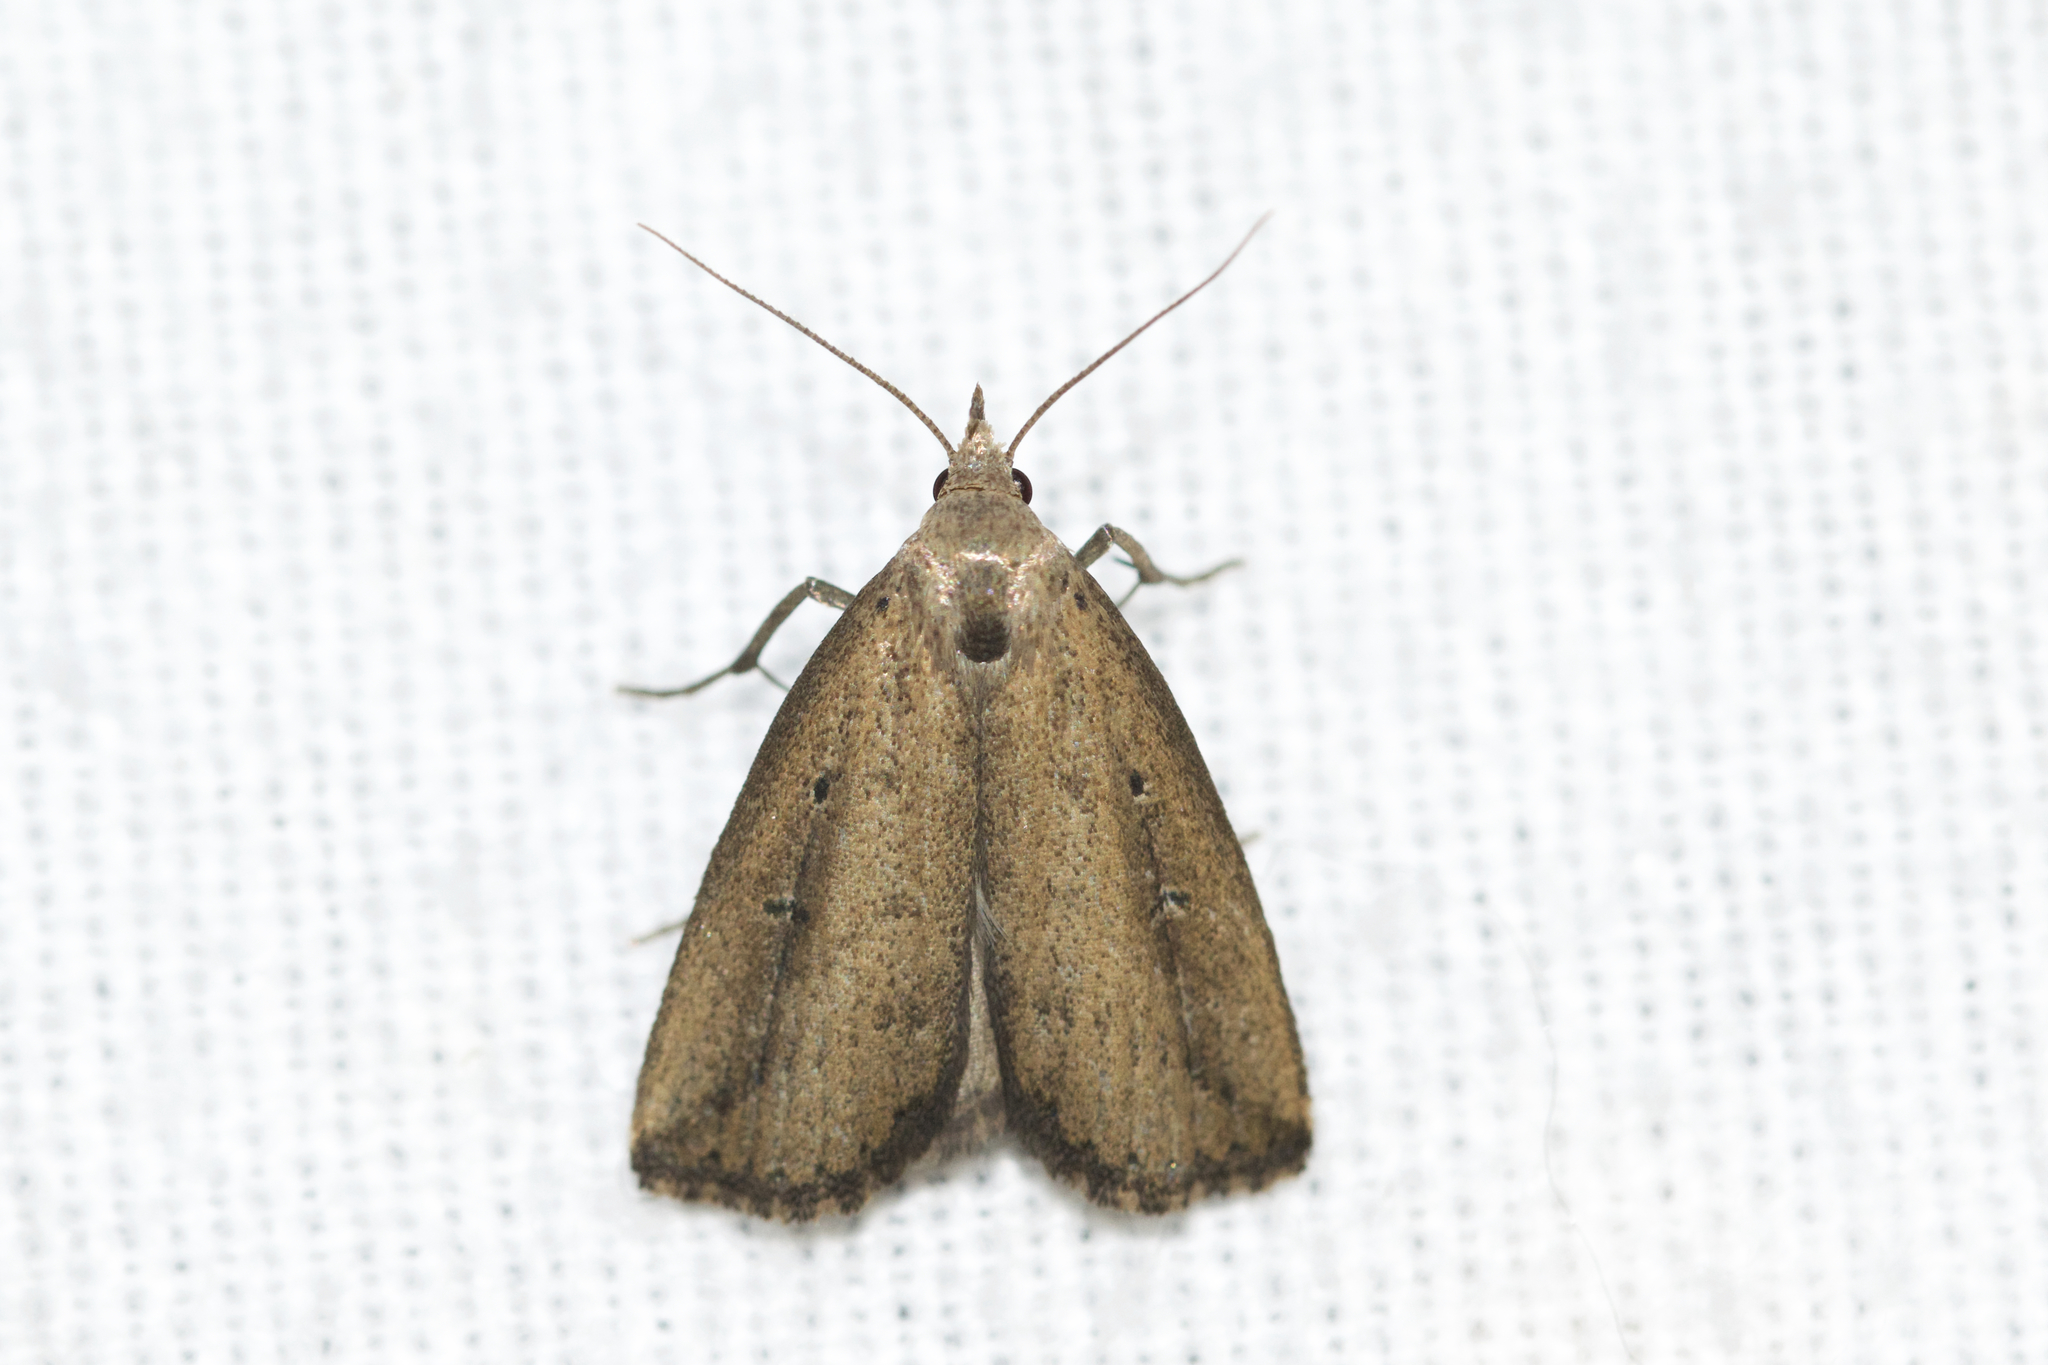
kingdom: Animalia
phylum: Arthropoda
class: Insecta
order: Lepidoptera
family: Erebidae
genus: Macrochilo
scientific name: Macrochilo orciferalis
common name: Bronzy owlet
